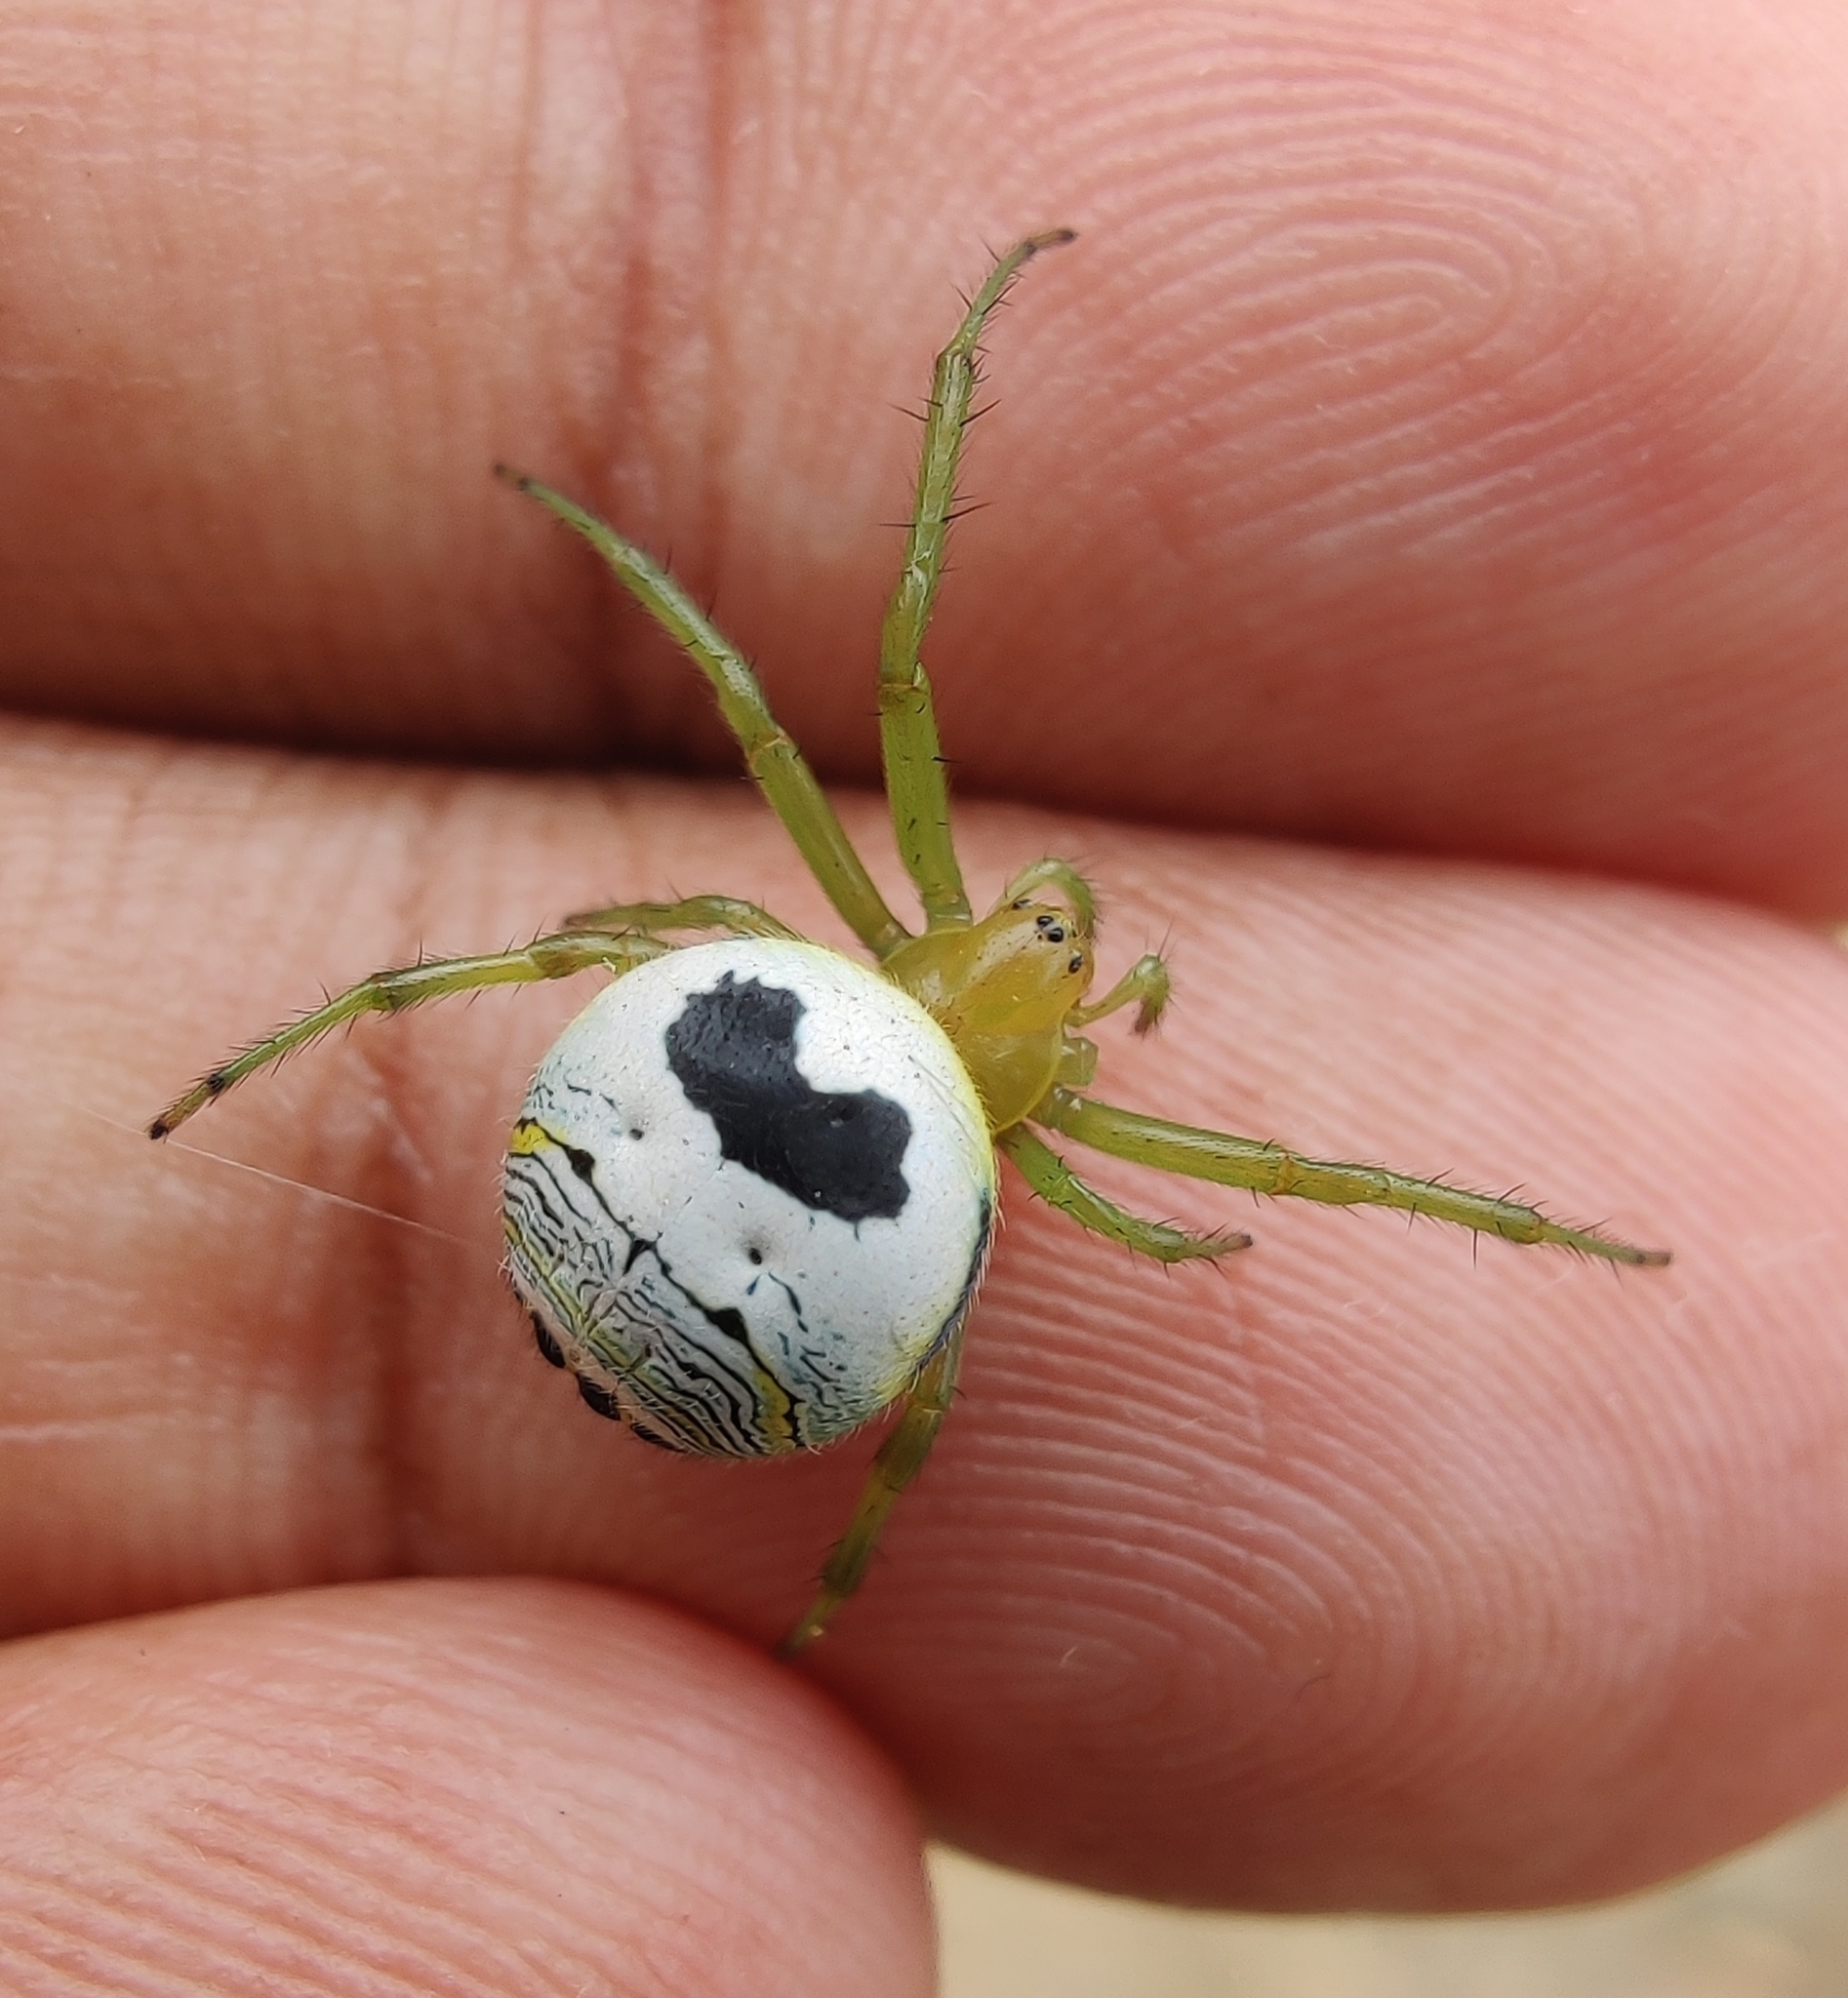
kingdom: Animalia
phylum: Arthropoda
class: Arachnida
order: Araneae
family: Araneidae
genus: Bijoaraneus
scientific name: Bijoaraneus mitificus
